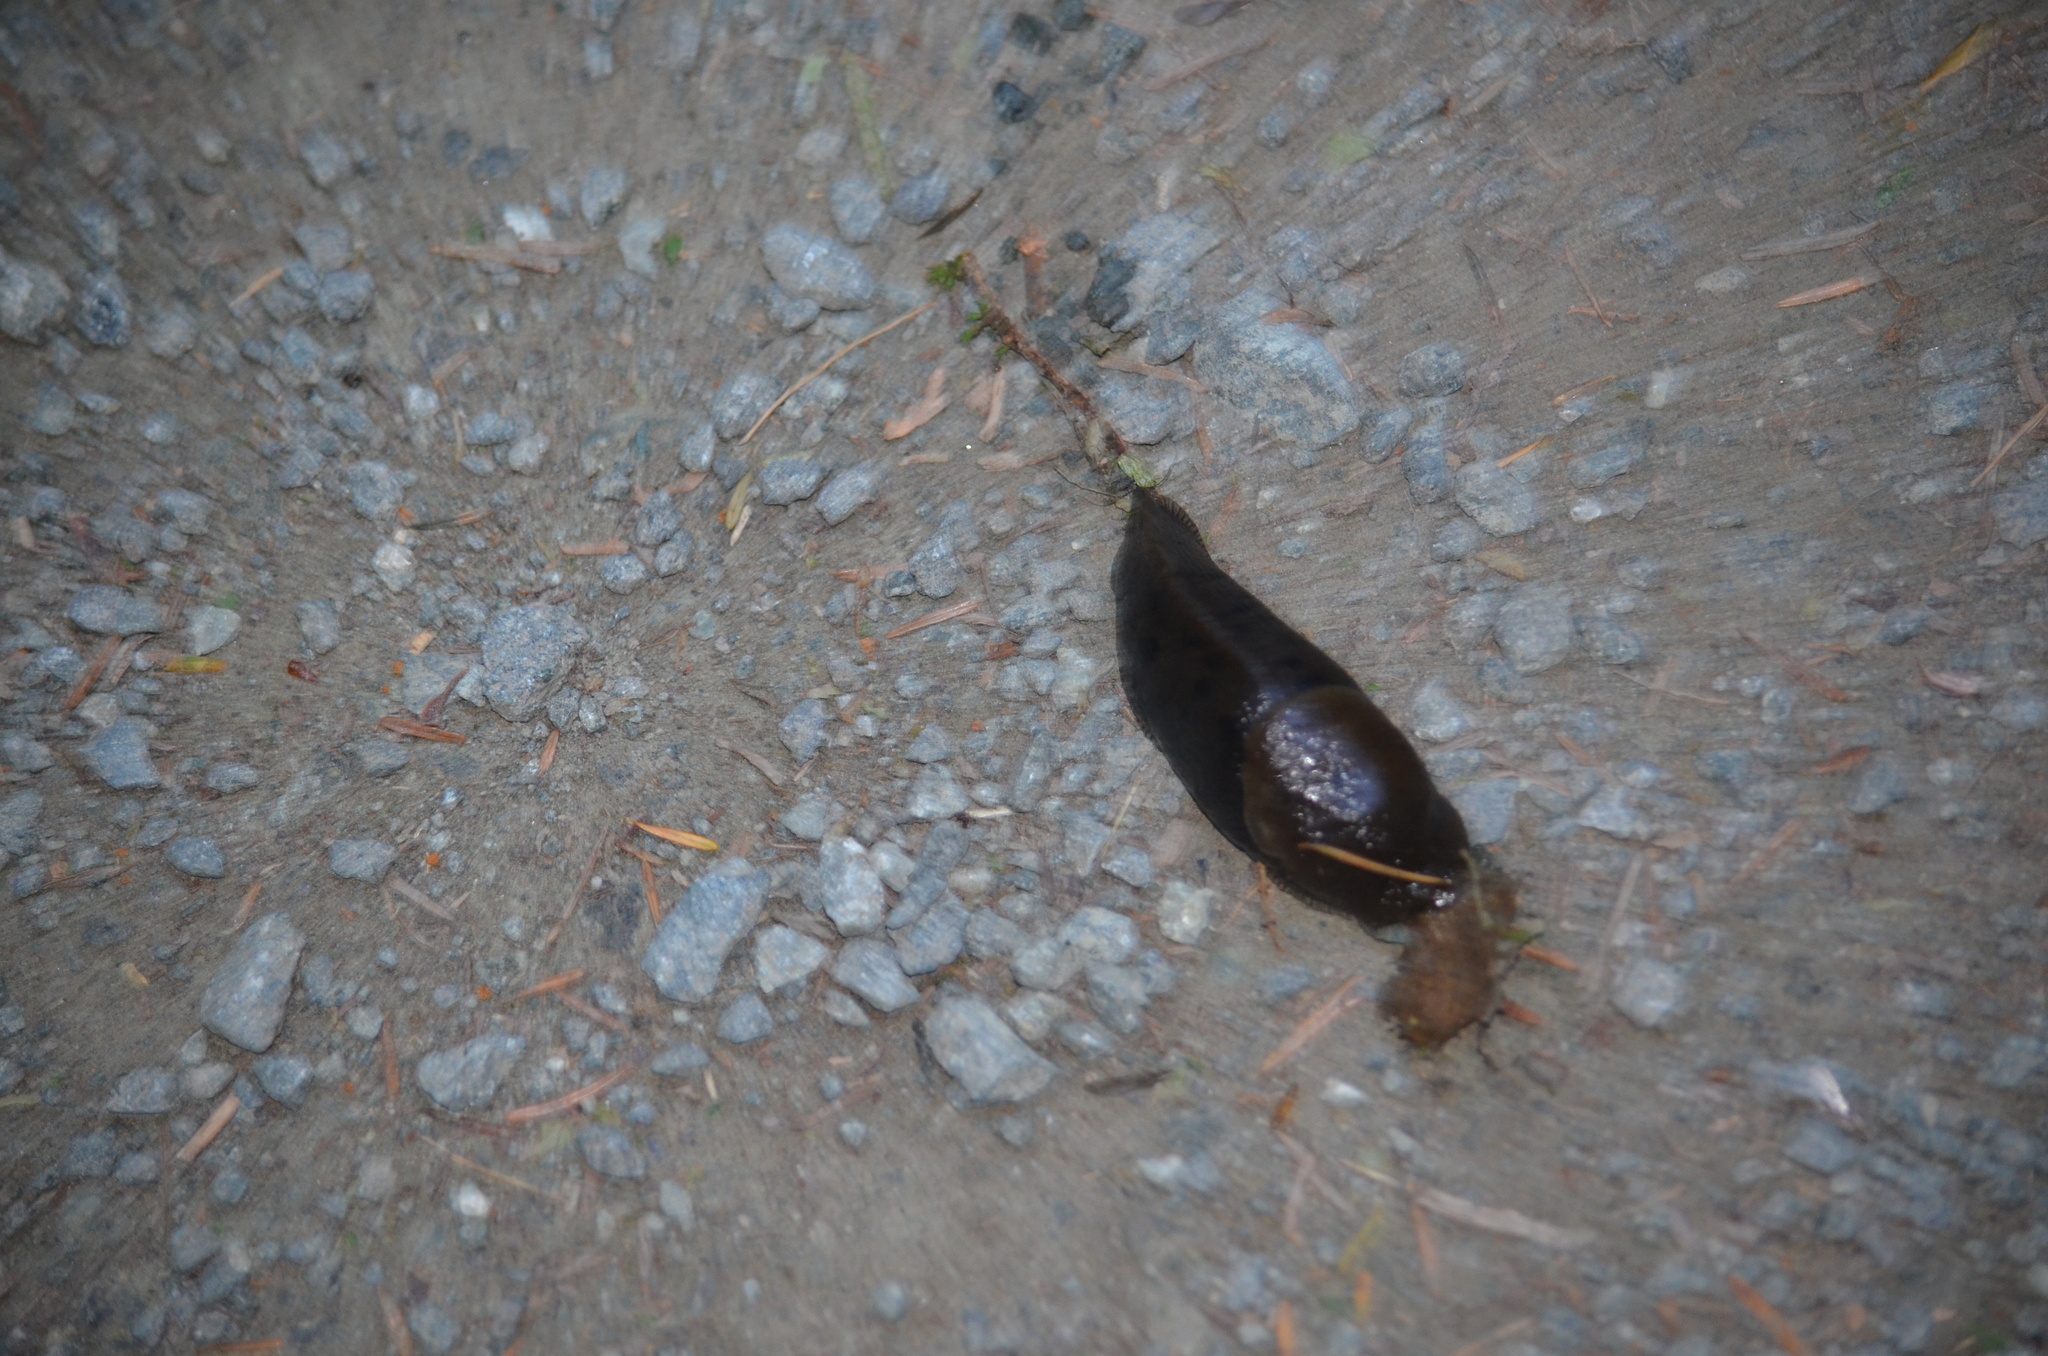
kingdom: Animalia
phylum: Mollusca
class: Gastropoda
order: Stylommatophora
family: Ariolimacidae
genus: Ariolimax
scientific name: Ariolimax columbianus
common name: Pacific banana slug
